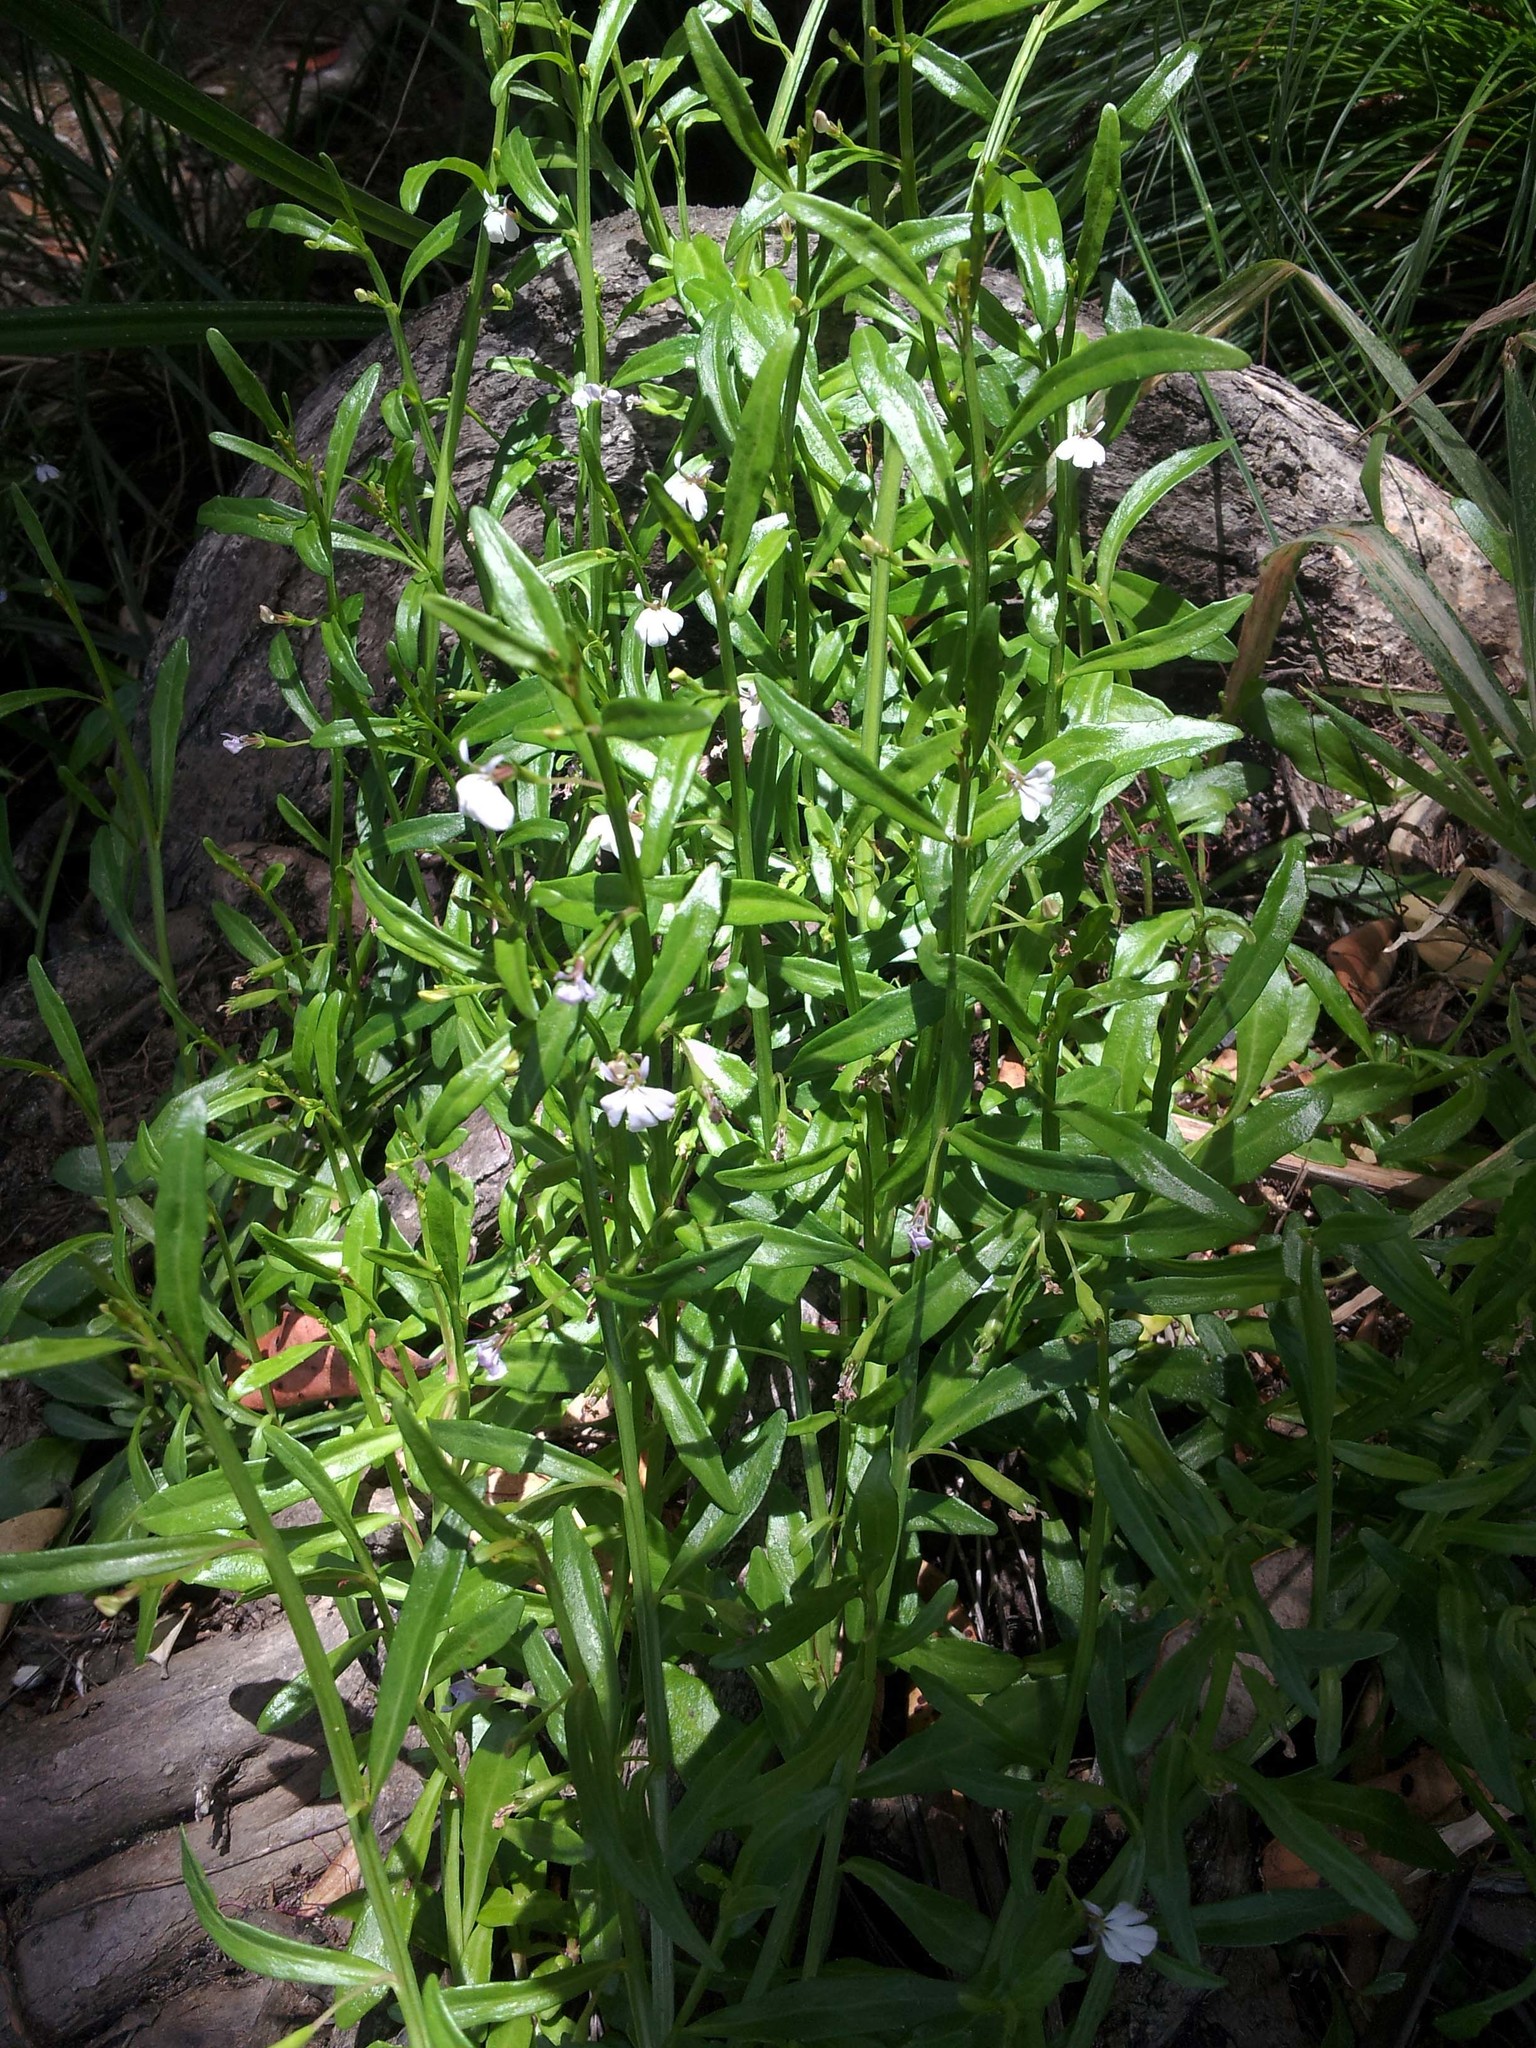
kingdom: Plantae
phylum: Tracheophyta
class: Magnoliopsida
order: Asterales
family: Campanulaceae
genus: Lobelia
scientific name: Lobelia anceps
